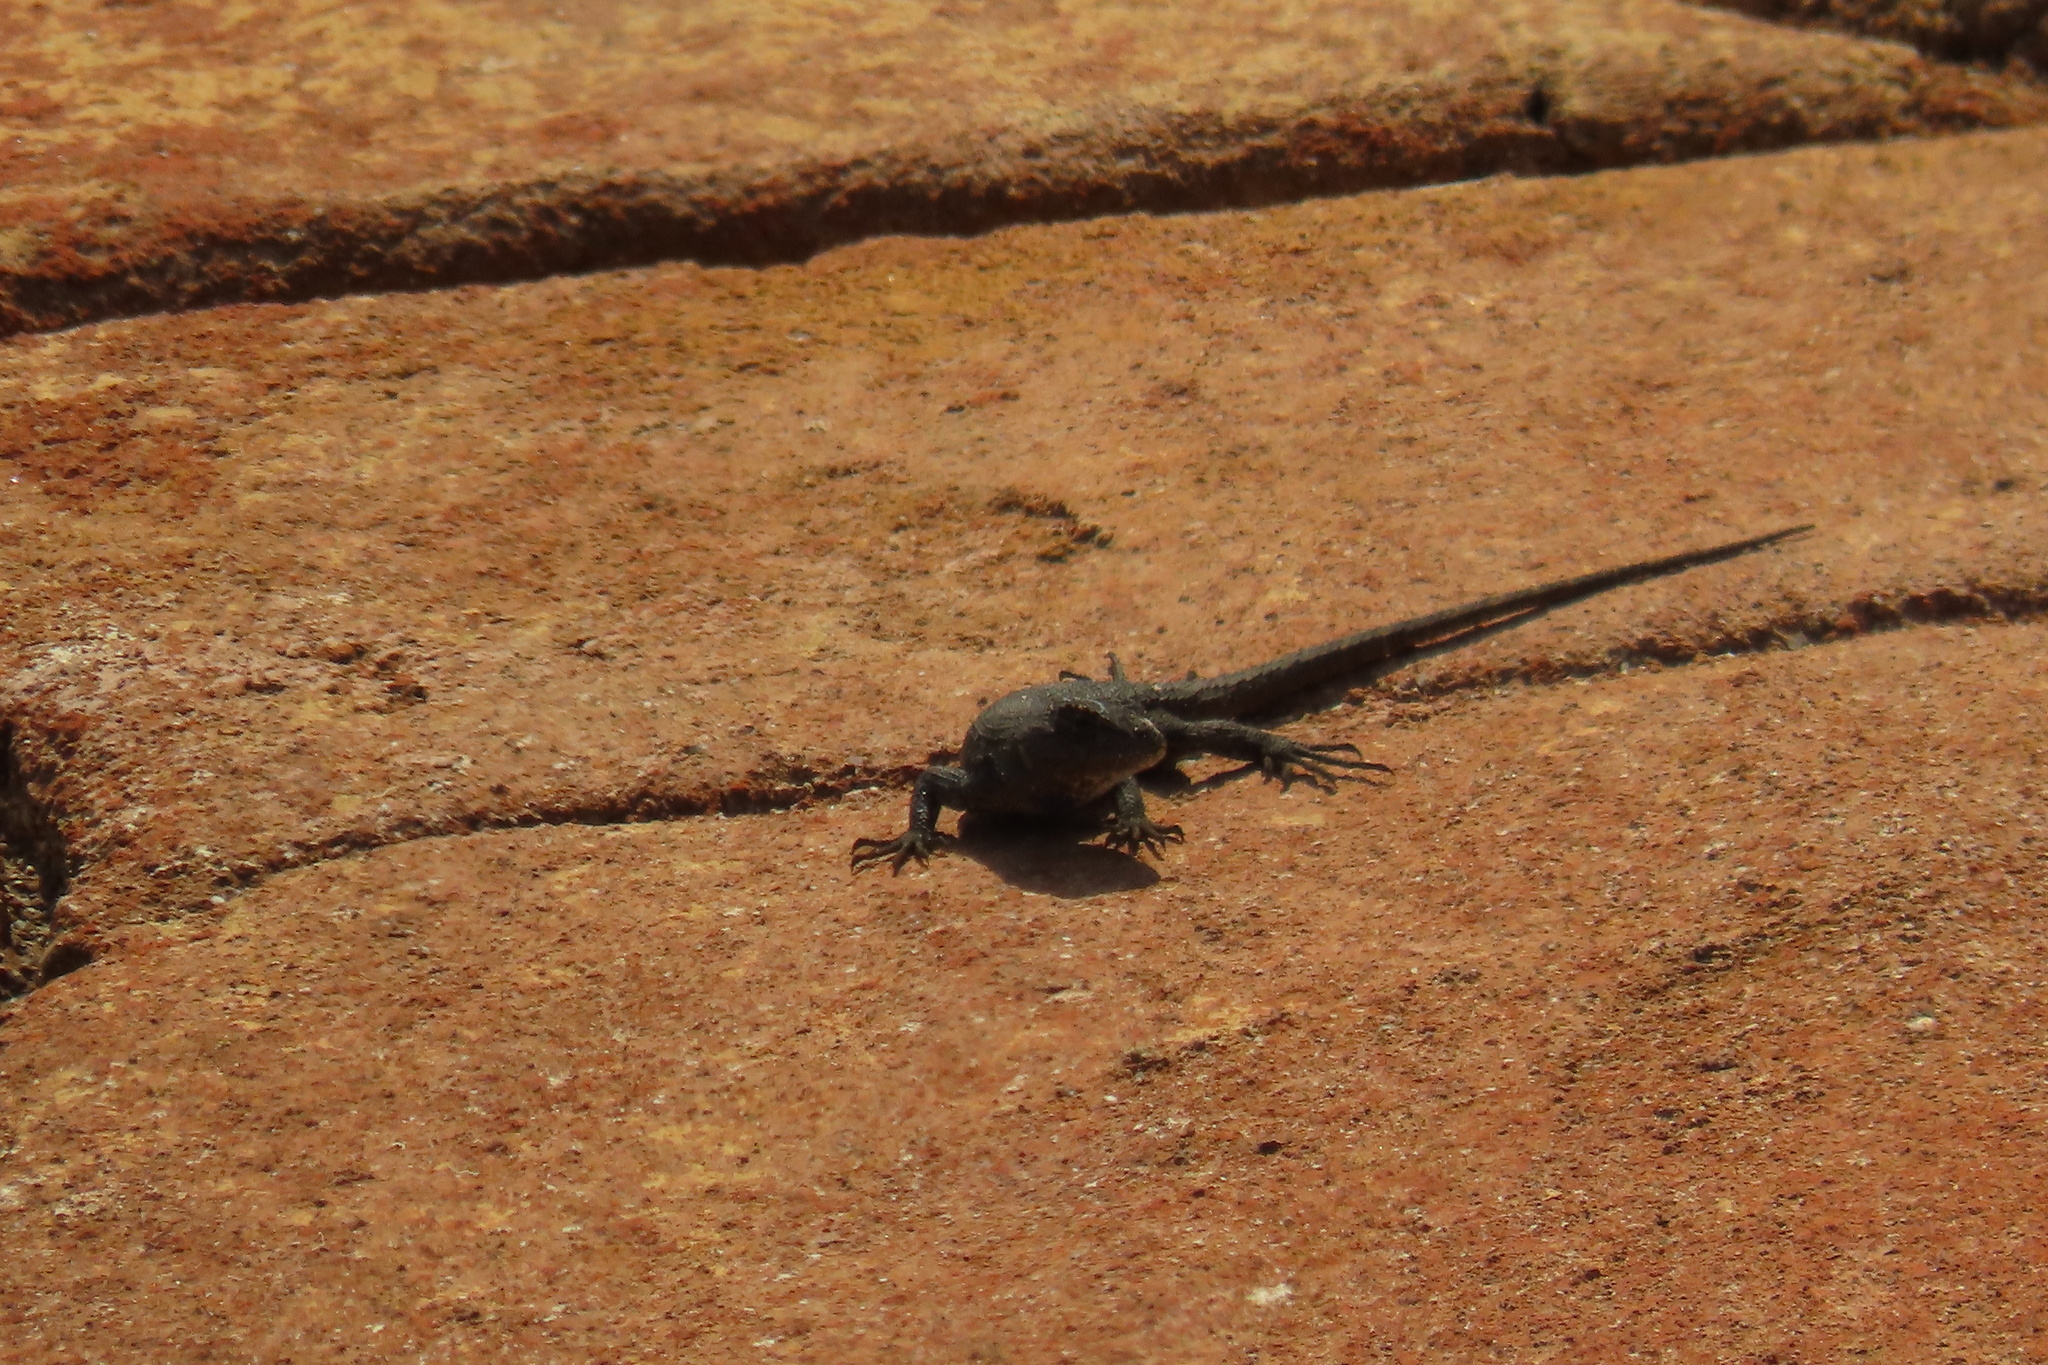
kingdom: Animalia
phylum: Chordata
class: Squamata
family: Phrynosomatidae
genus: Sceloporus
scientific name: Sceloporus occidentalis
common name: Western fence lizard
